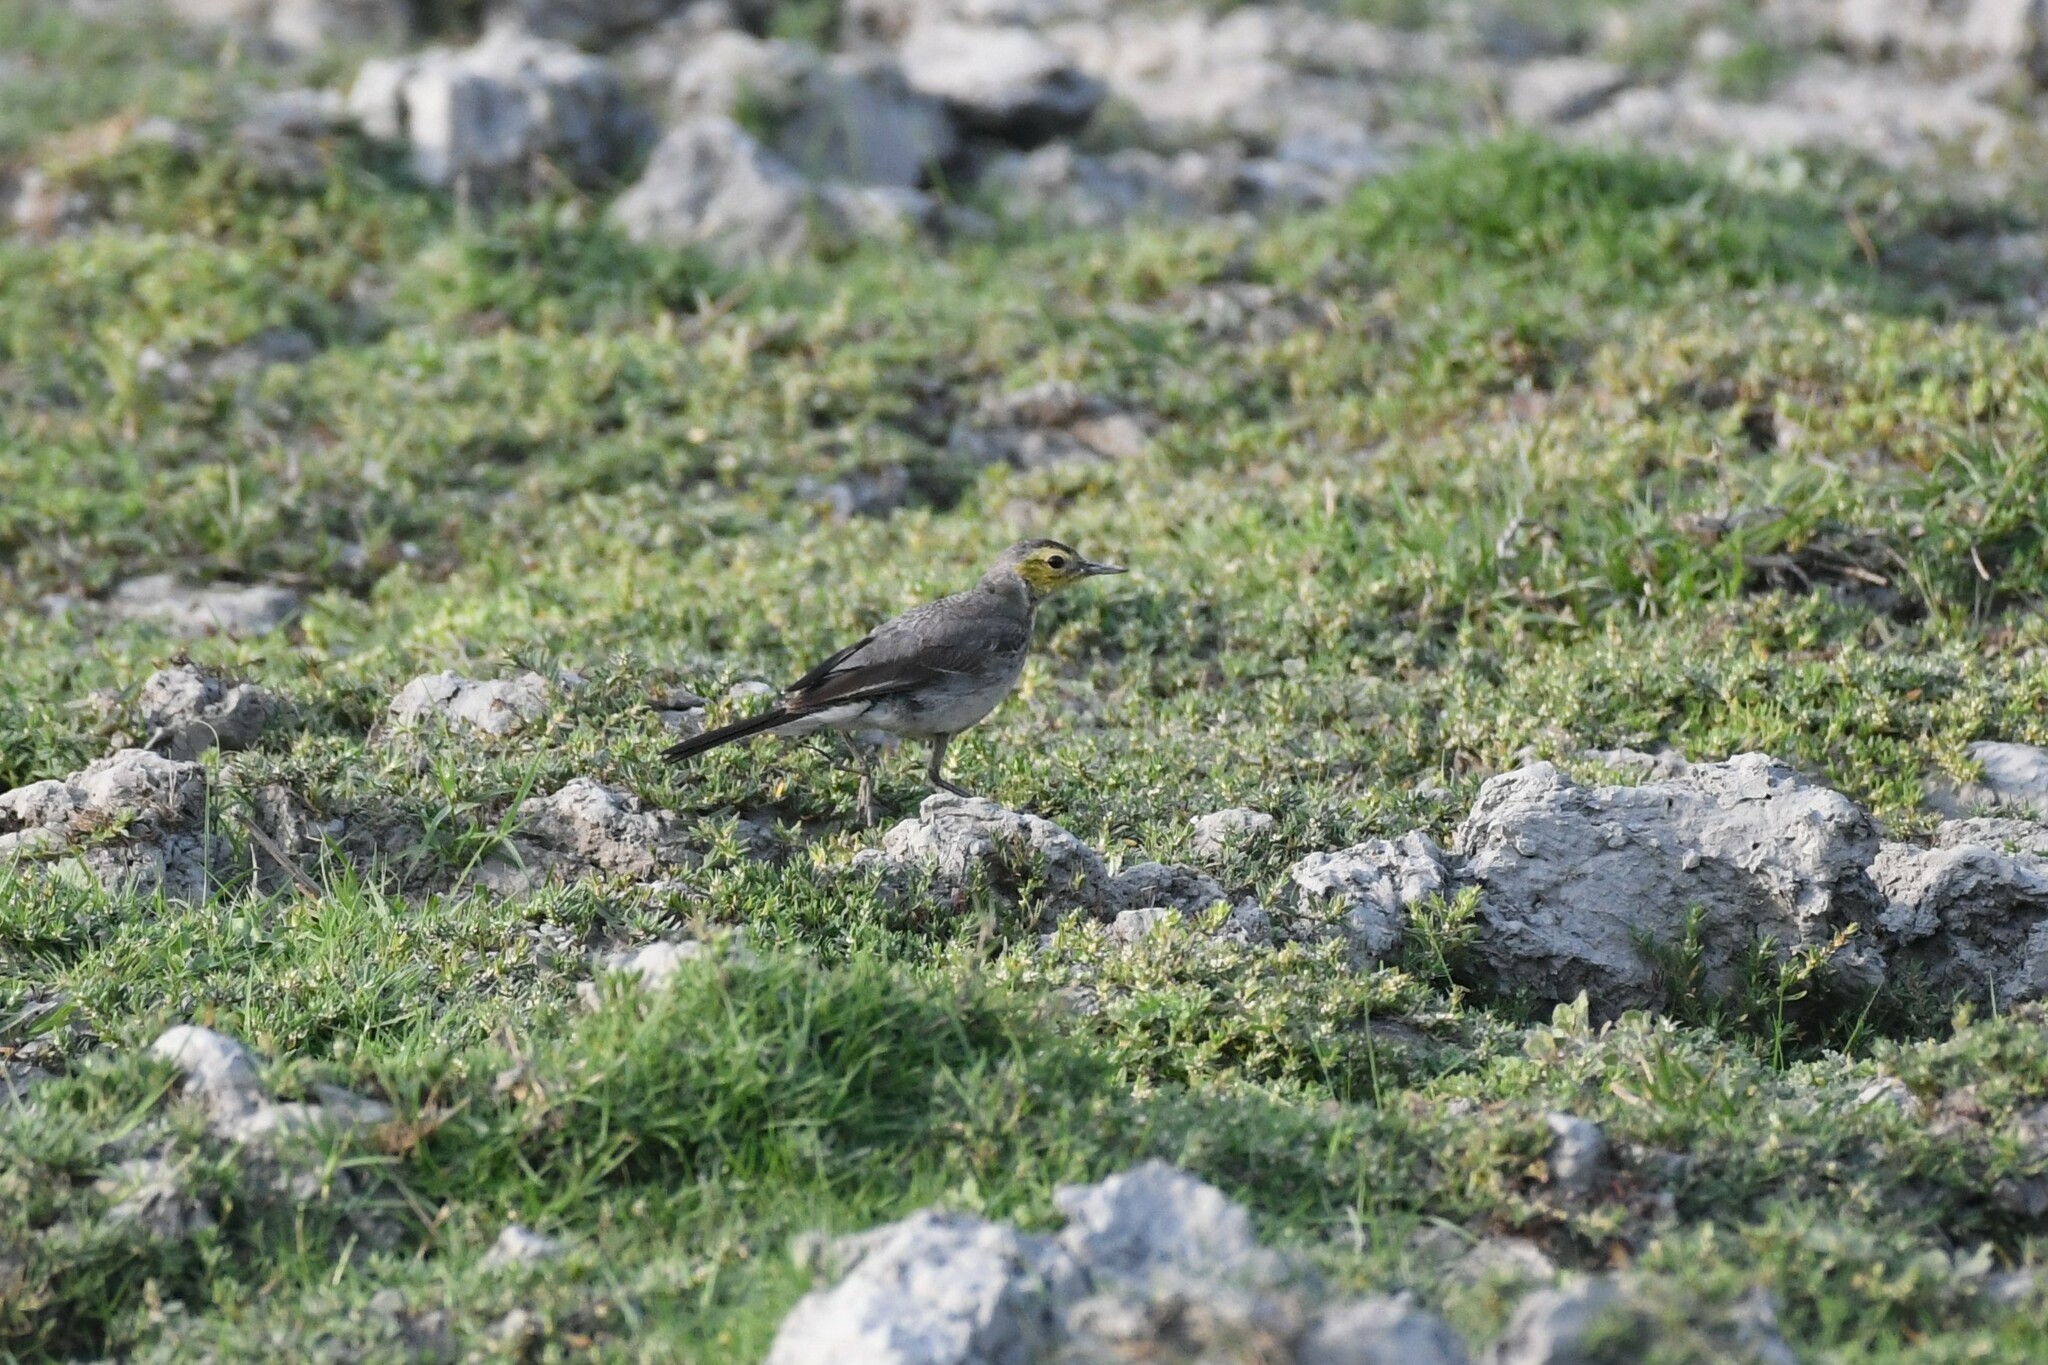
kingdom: Animalia
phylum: Chordata
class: Aves
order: Passeriformes
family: Motacillidae
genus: Motacilla
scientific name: Motacilla citreola
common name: Citrine wagtail
